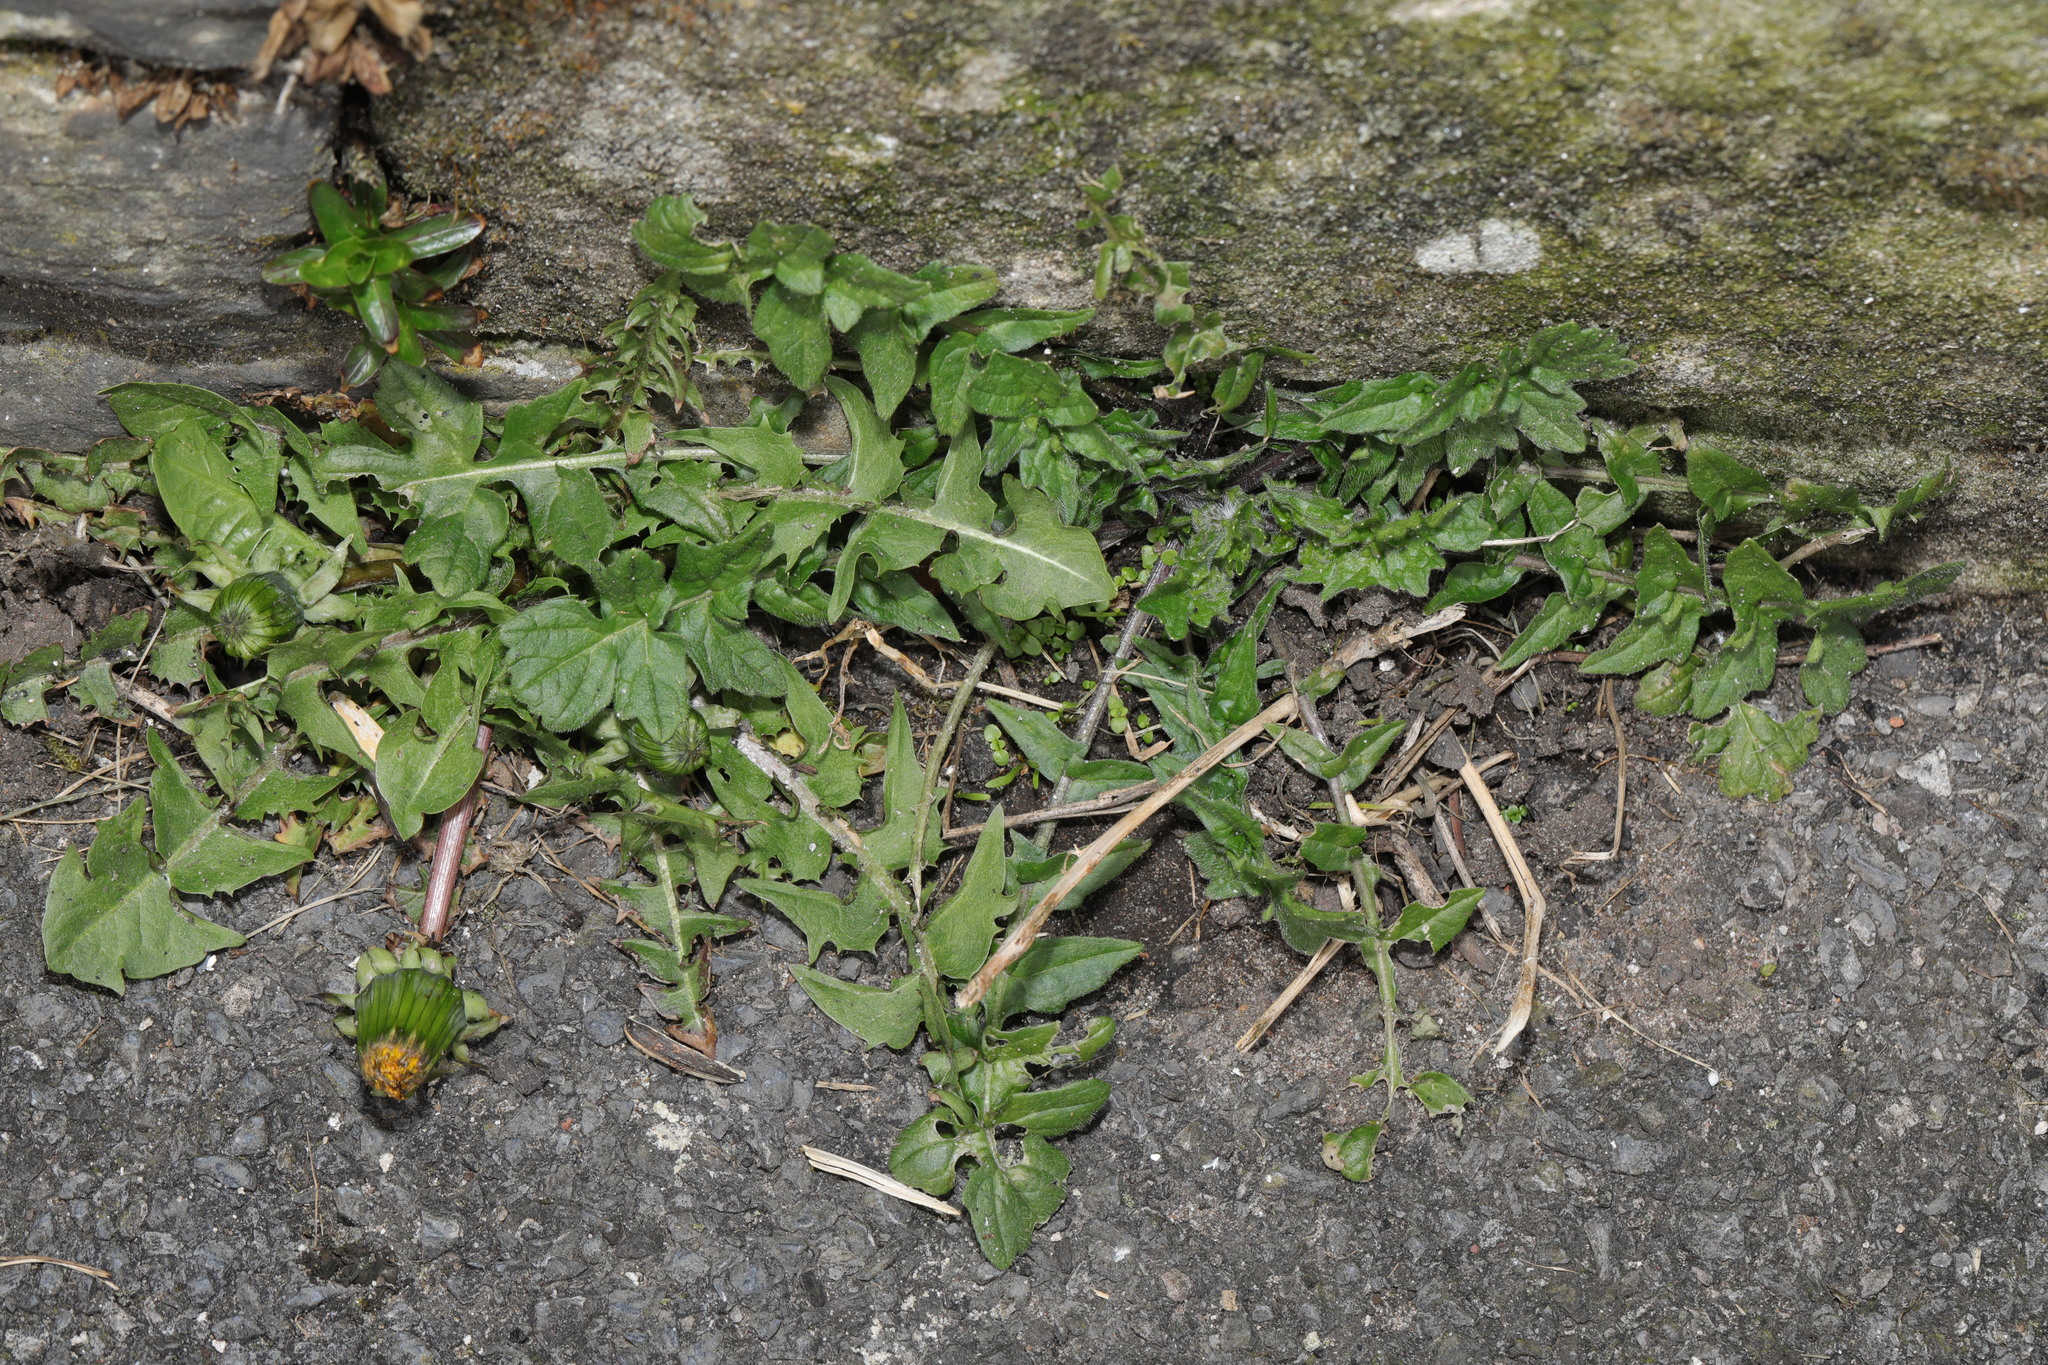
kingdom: Plantae
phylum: Tracheophyta
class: Magnoliopsida
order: Asterales
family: Asteraceae
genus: Taraxacum
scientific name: Taraxacum officinale
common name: Common dandelion
